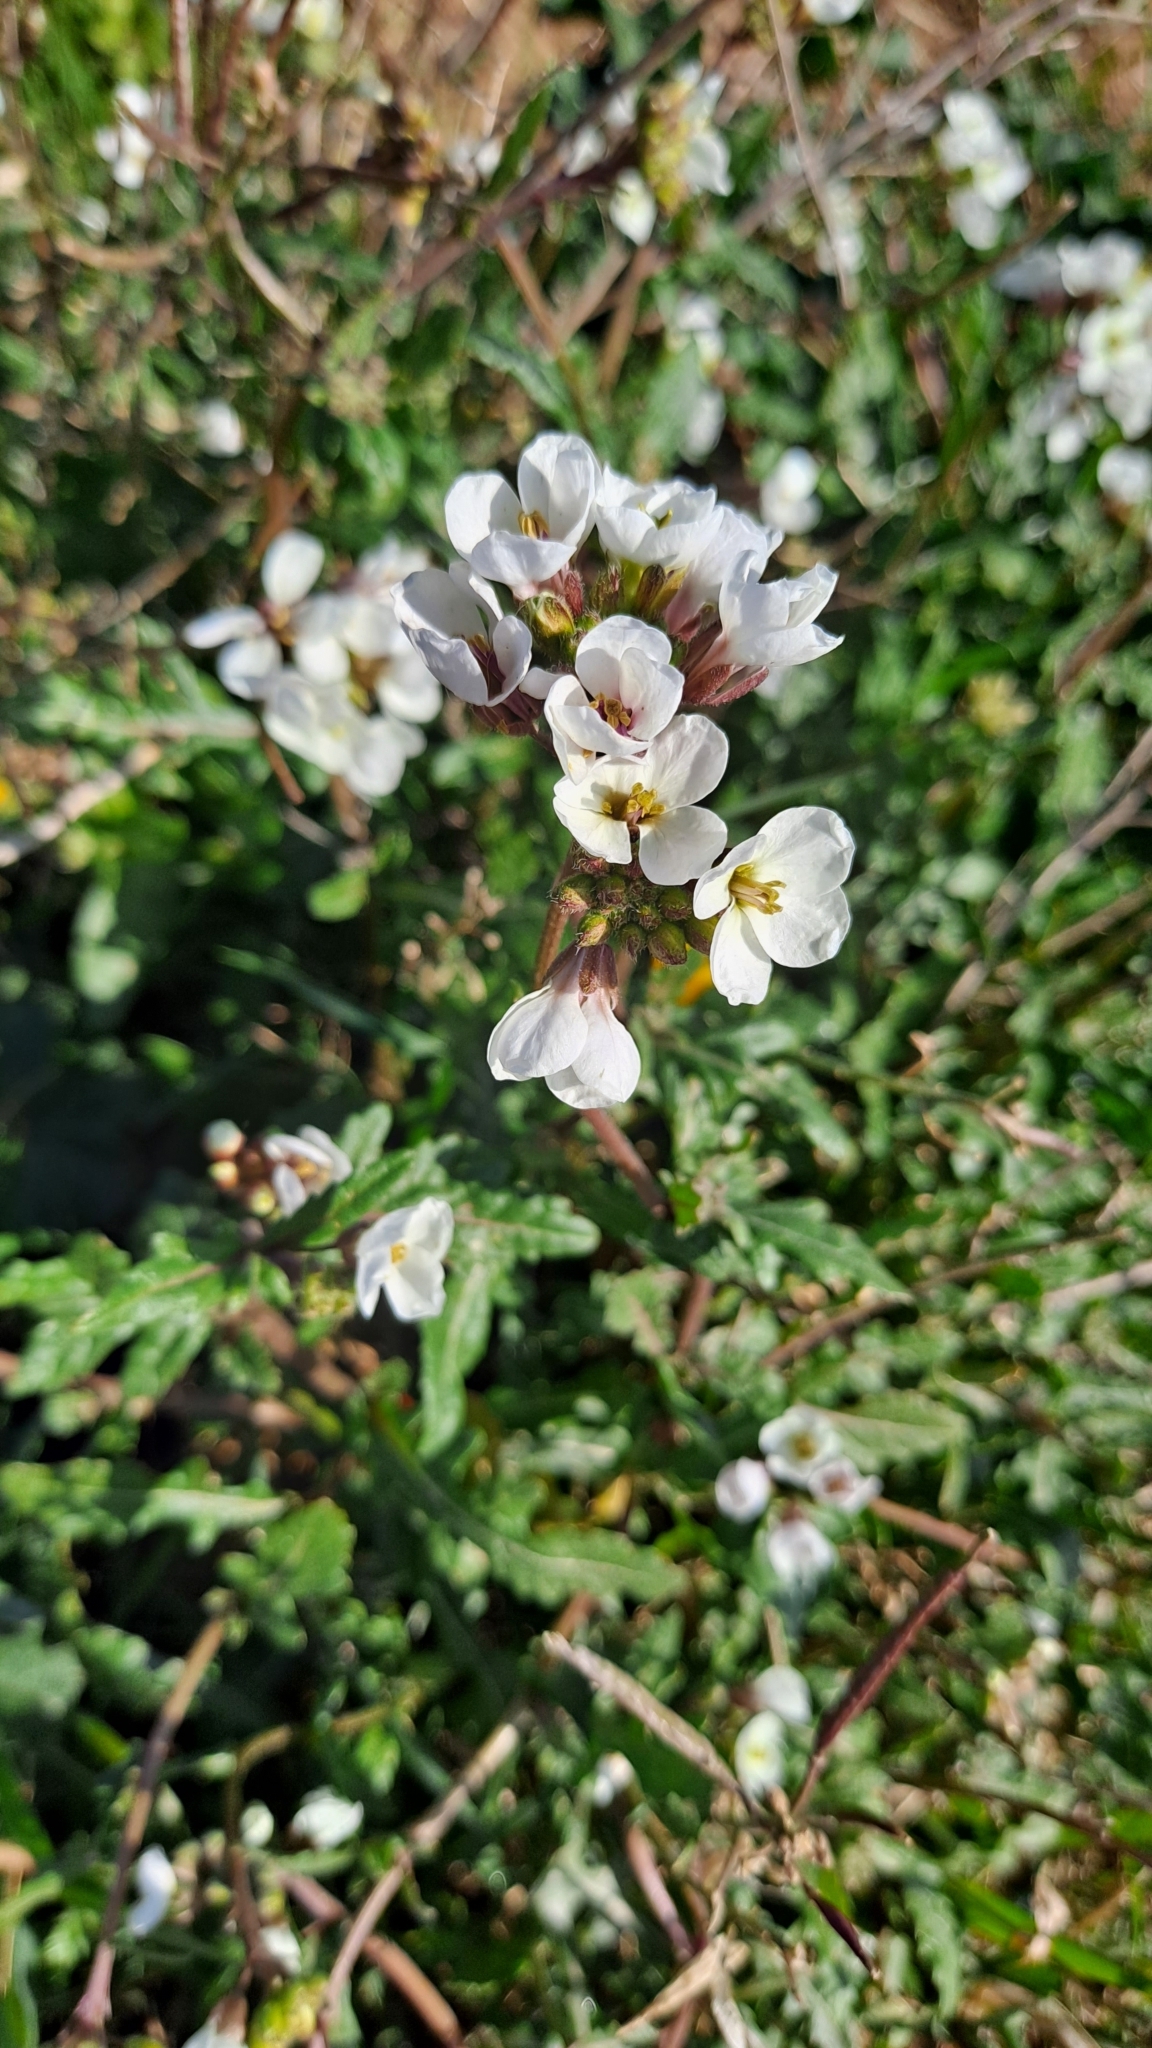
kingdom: Plantae
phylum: Tracheophyta
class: Magnoliopsida
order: Brassicales
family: Brassicaceae
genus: Diplotaxis
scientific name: Diplotaxis erucoides
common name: White rocket
